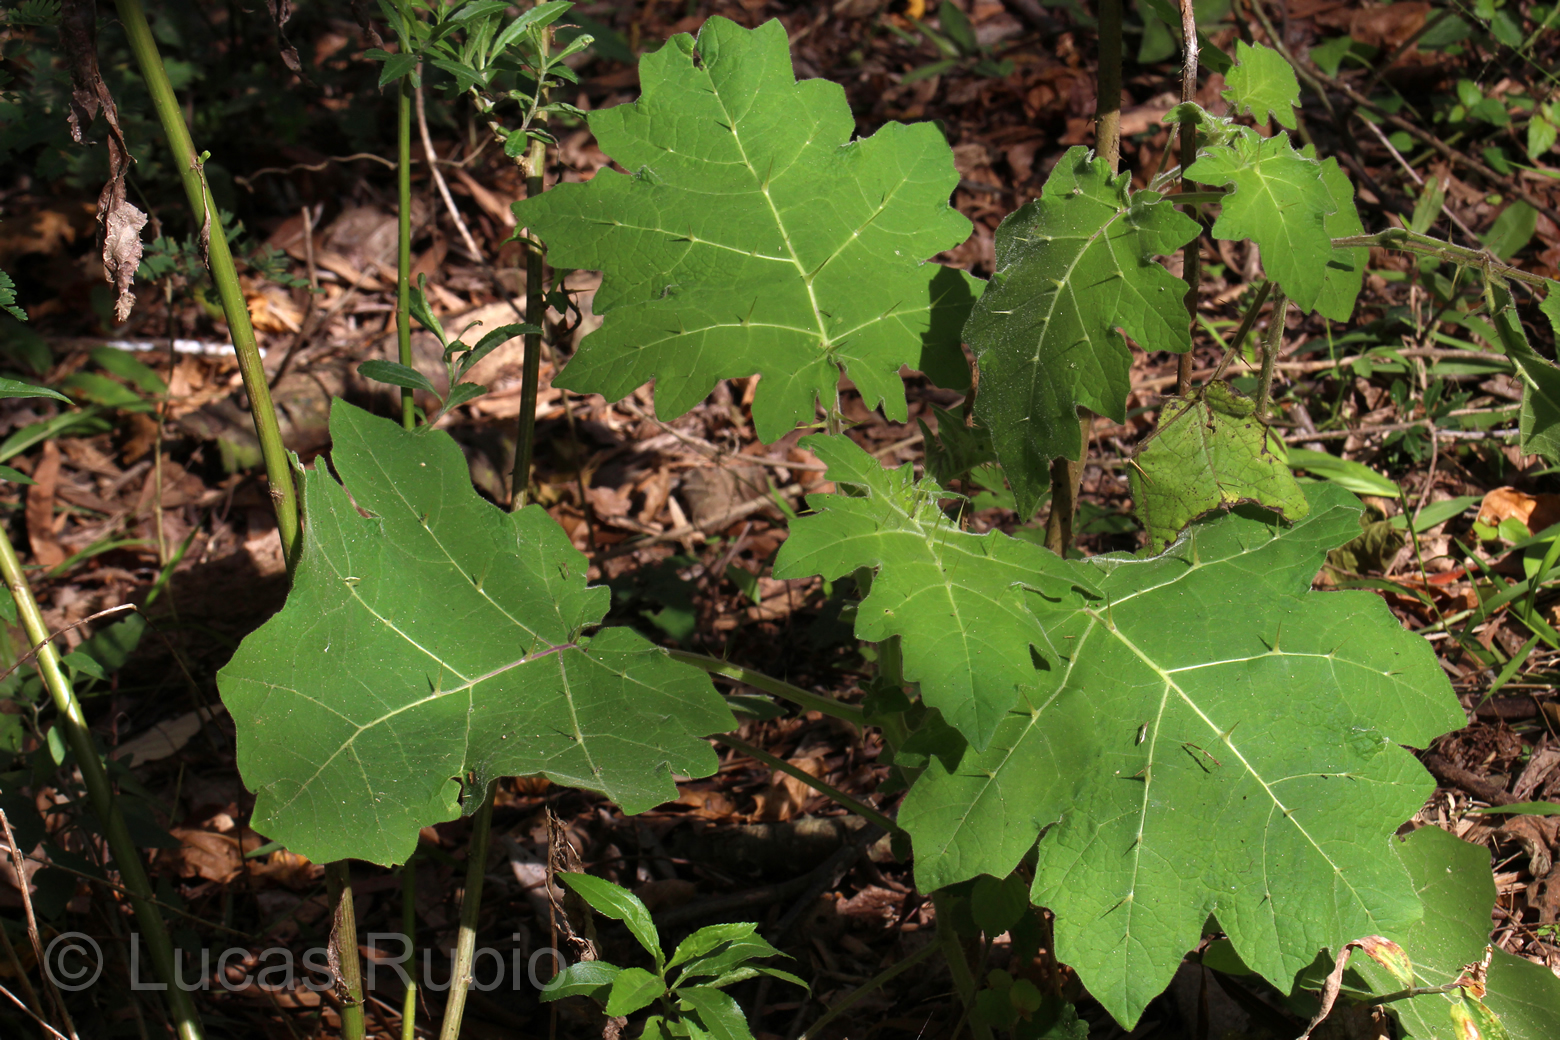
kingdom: Plantae
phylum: Tracheophyta
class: Magnoliopsida
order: Solanales
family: Solanaceae
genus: Solanum
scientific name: Solanum viarum
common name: Tropical soda apple
